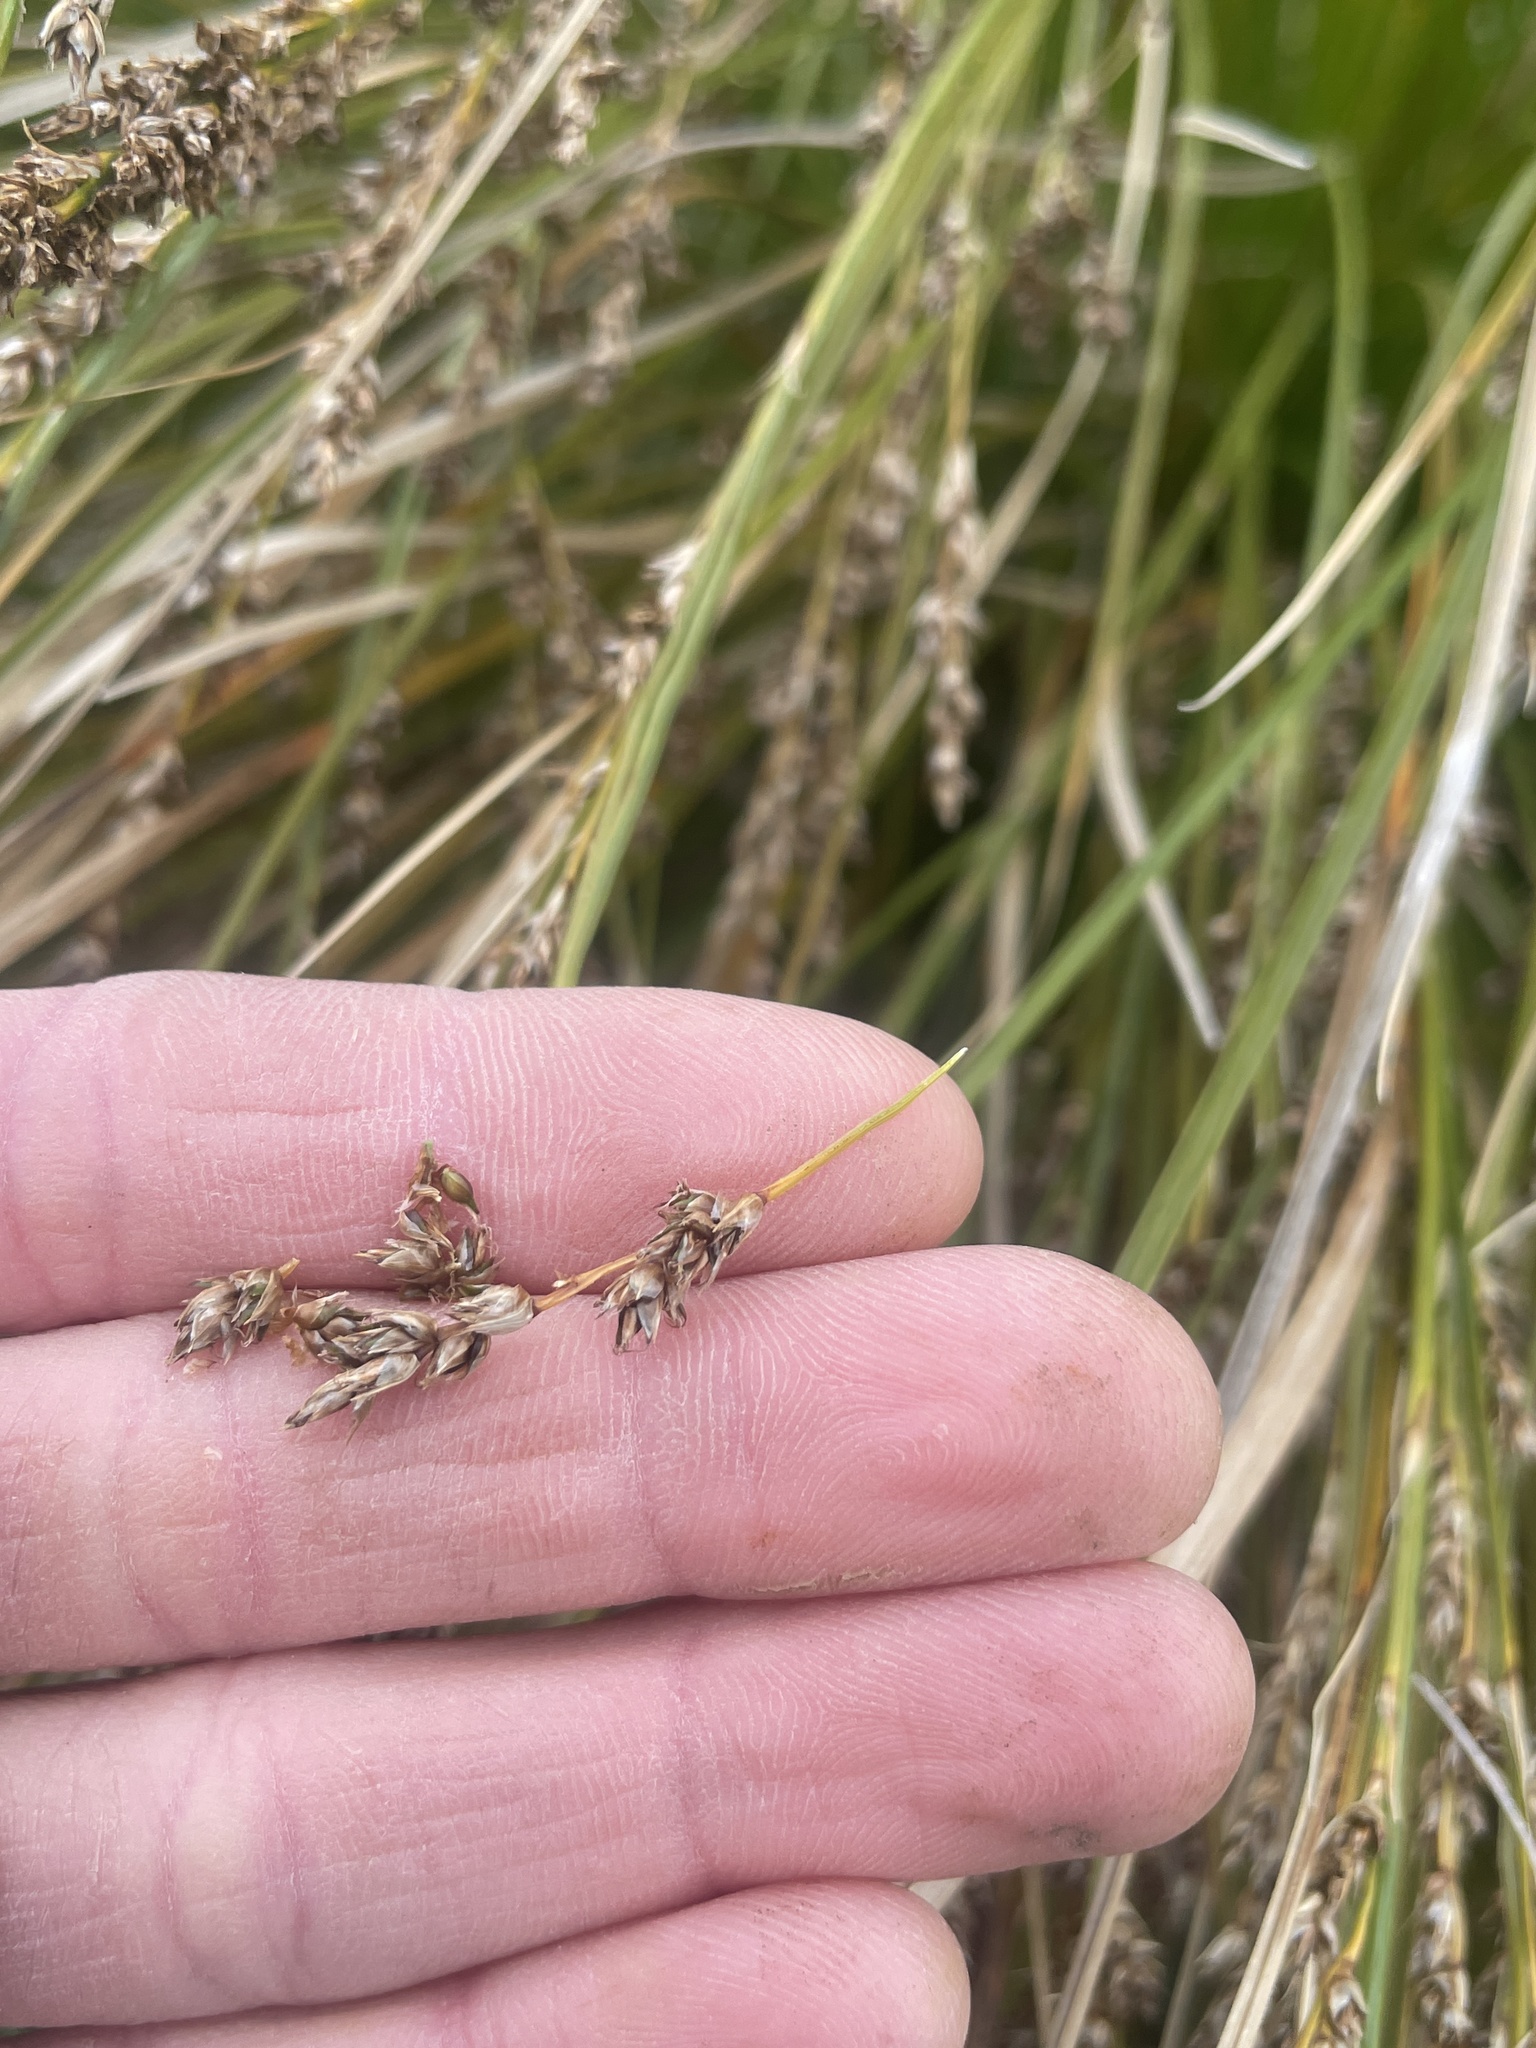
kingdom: Plantae
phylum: Tracheophyta
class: Liliopsida
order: Poales
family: Cyperaceae
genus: Carex
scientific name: Carex secta
